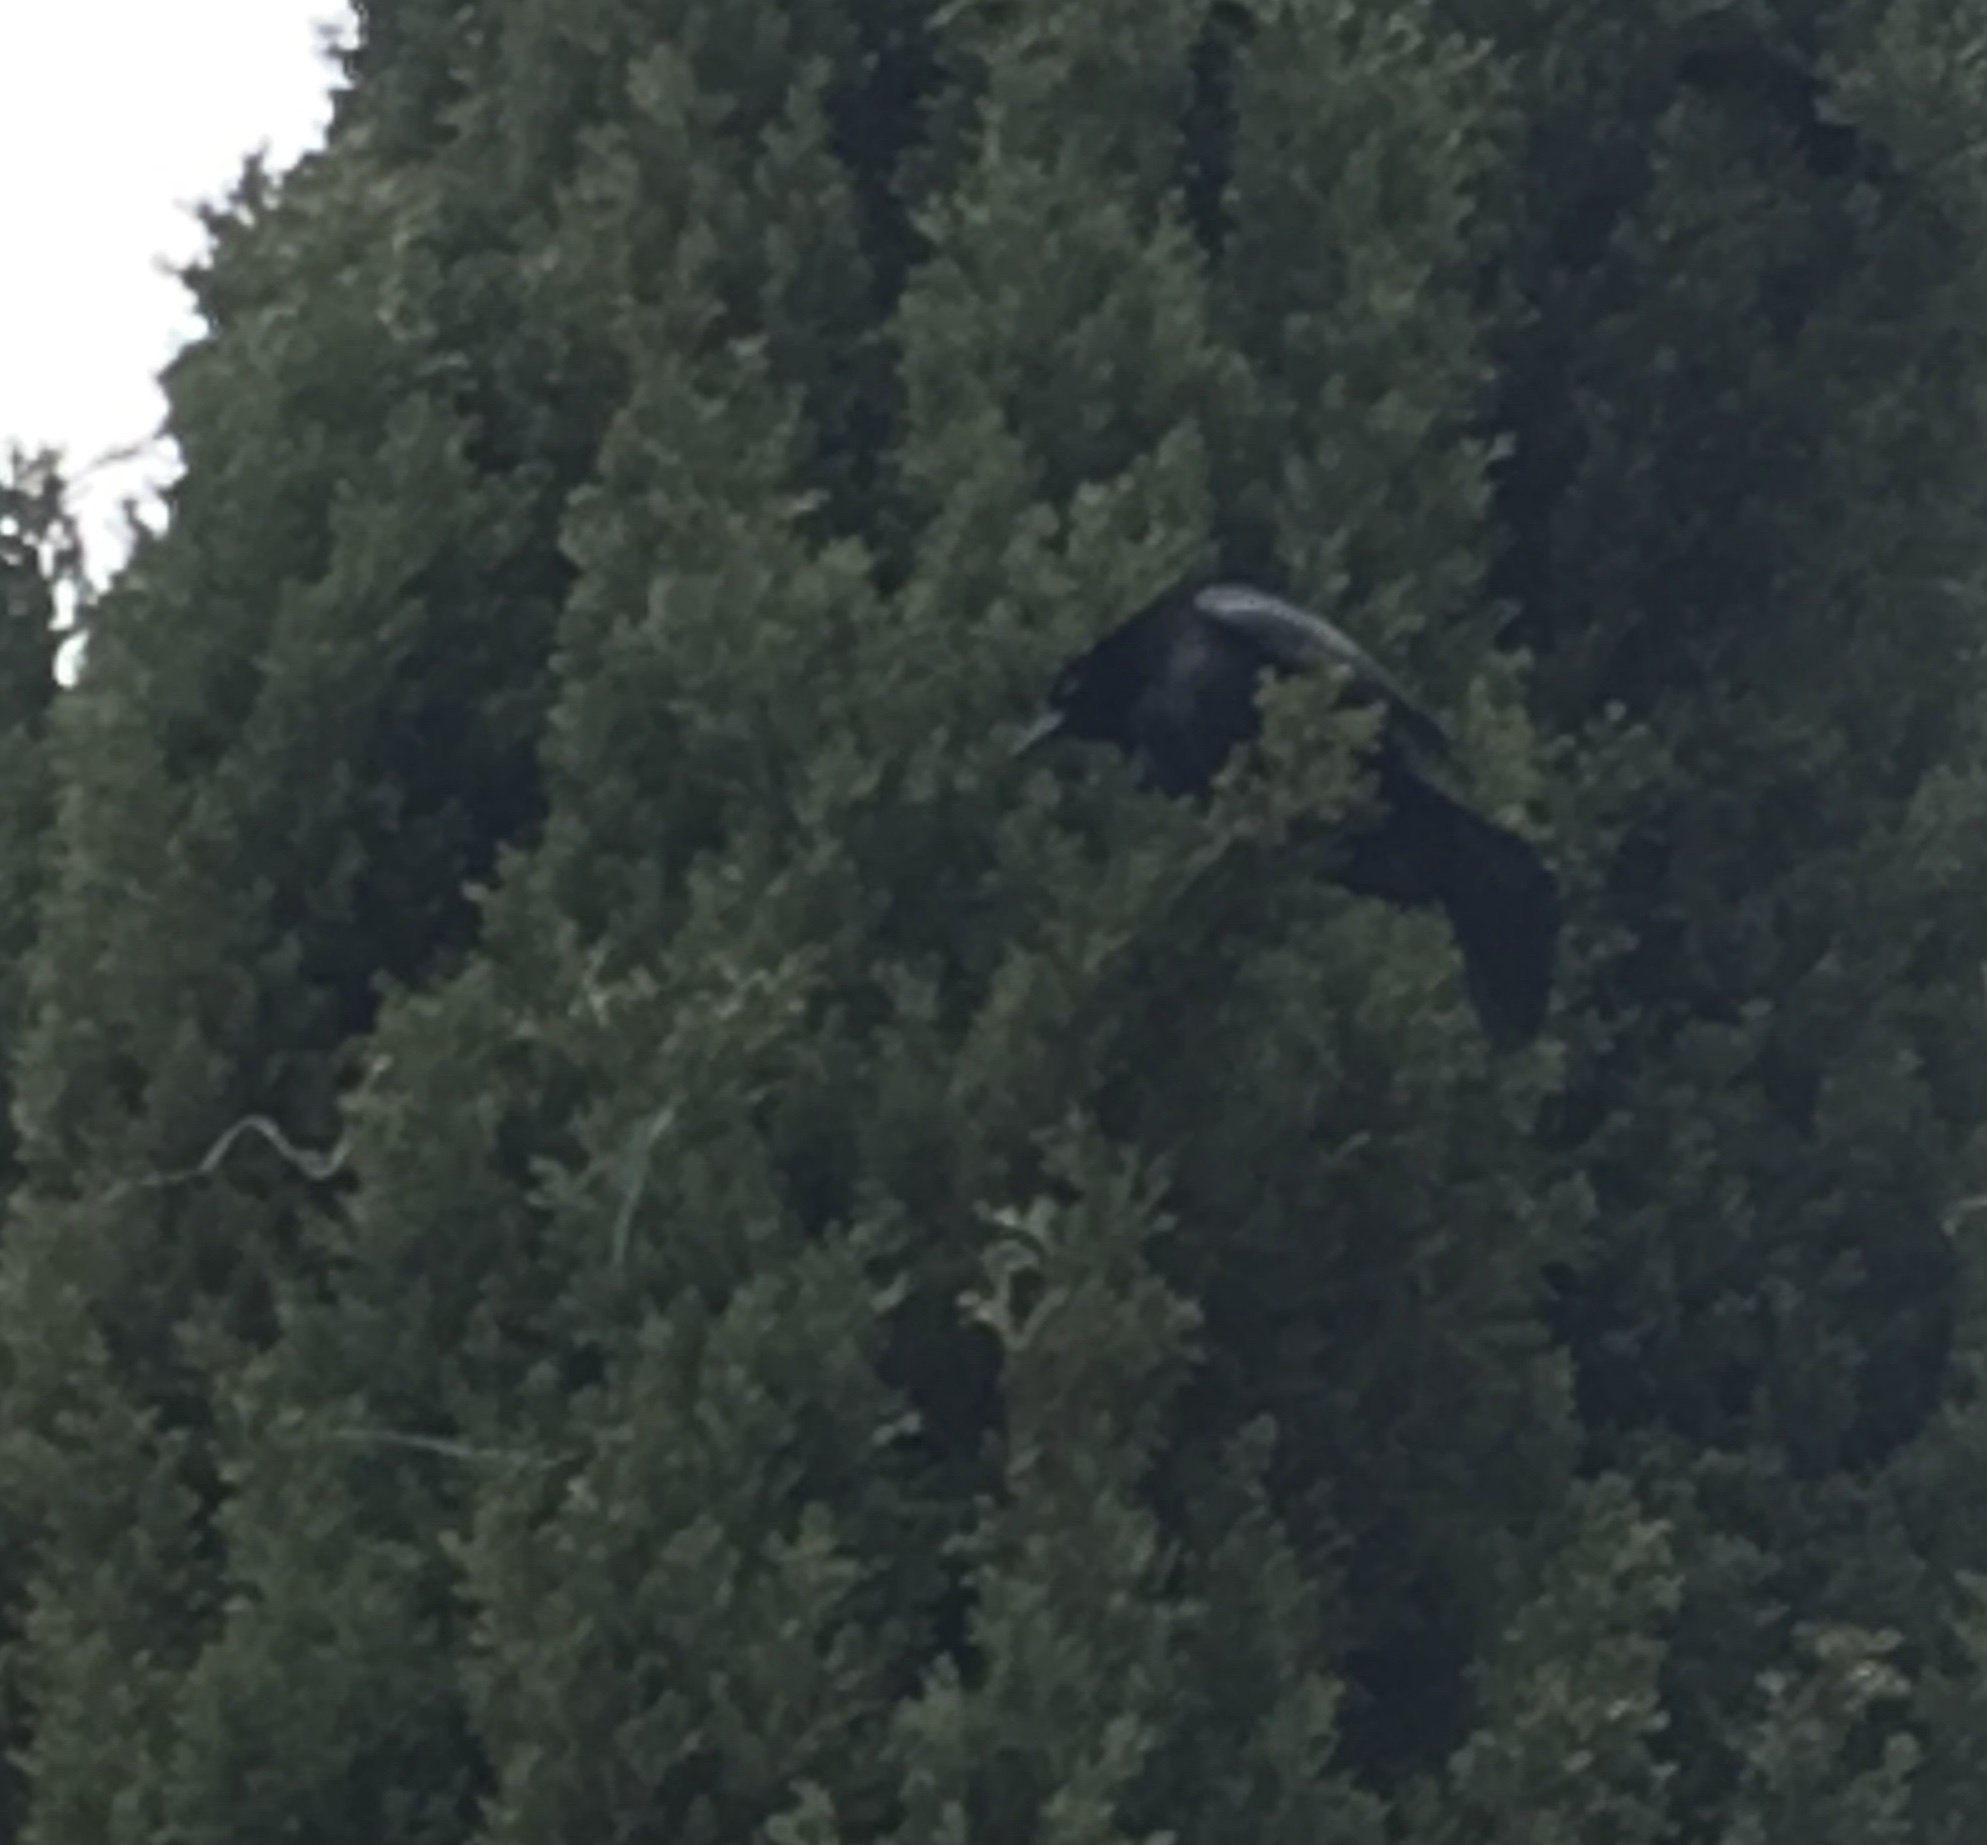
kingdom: Animalia
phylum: Chordata
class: Aves
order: Passeriformes
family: Icteridae
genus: Molothrus
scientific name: Molothrus bonariensis
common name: Shiny cowbird
